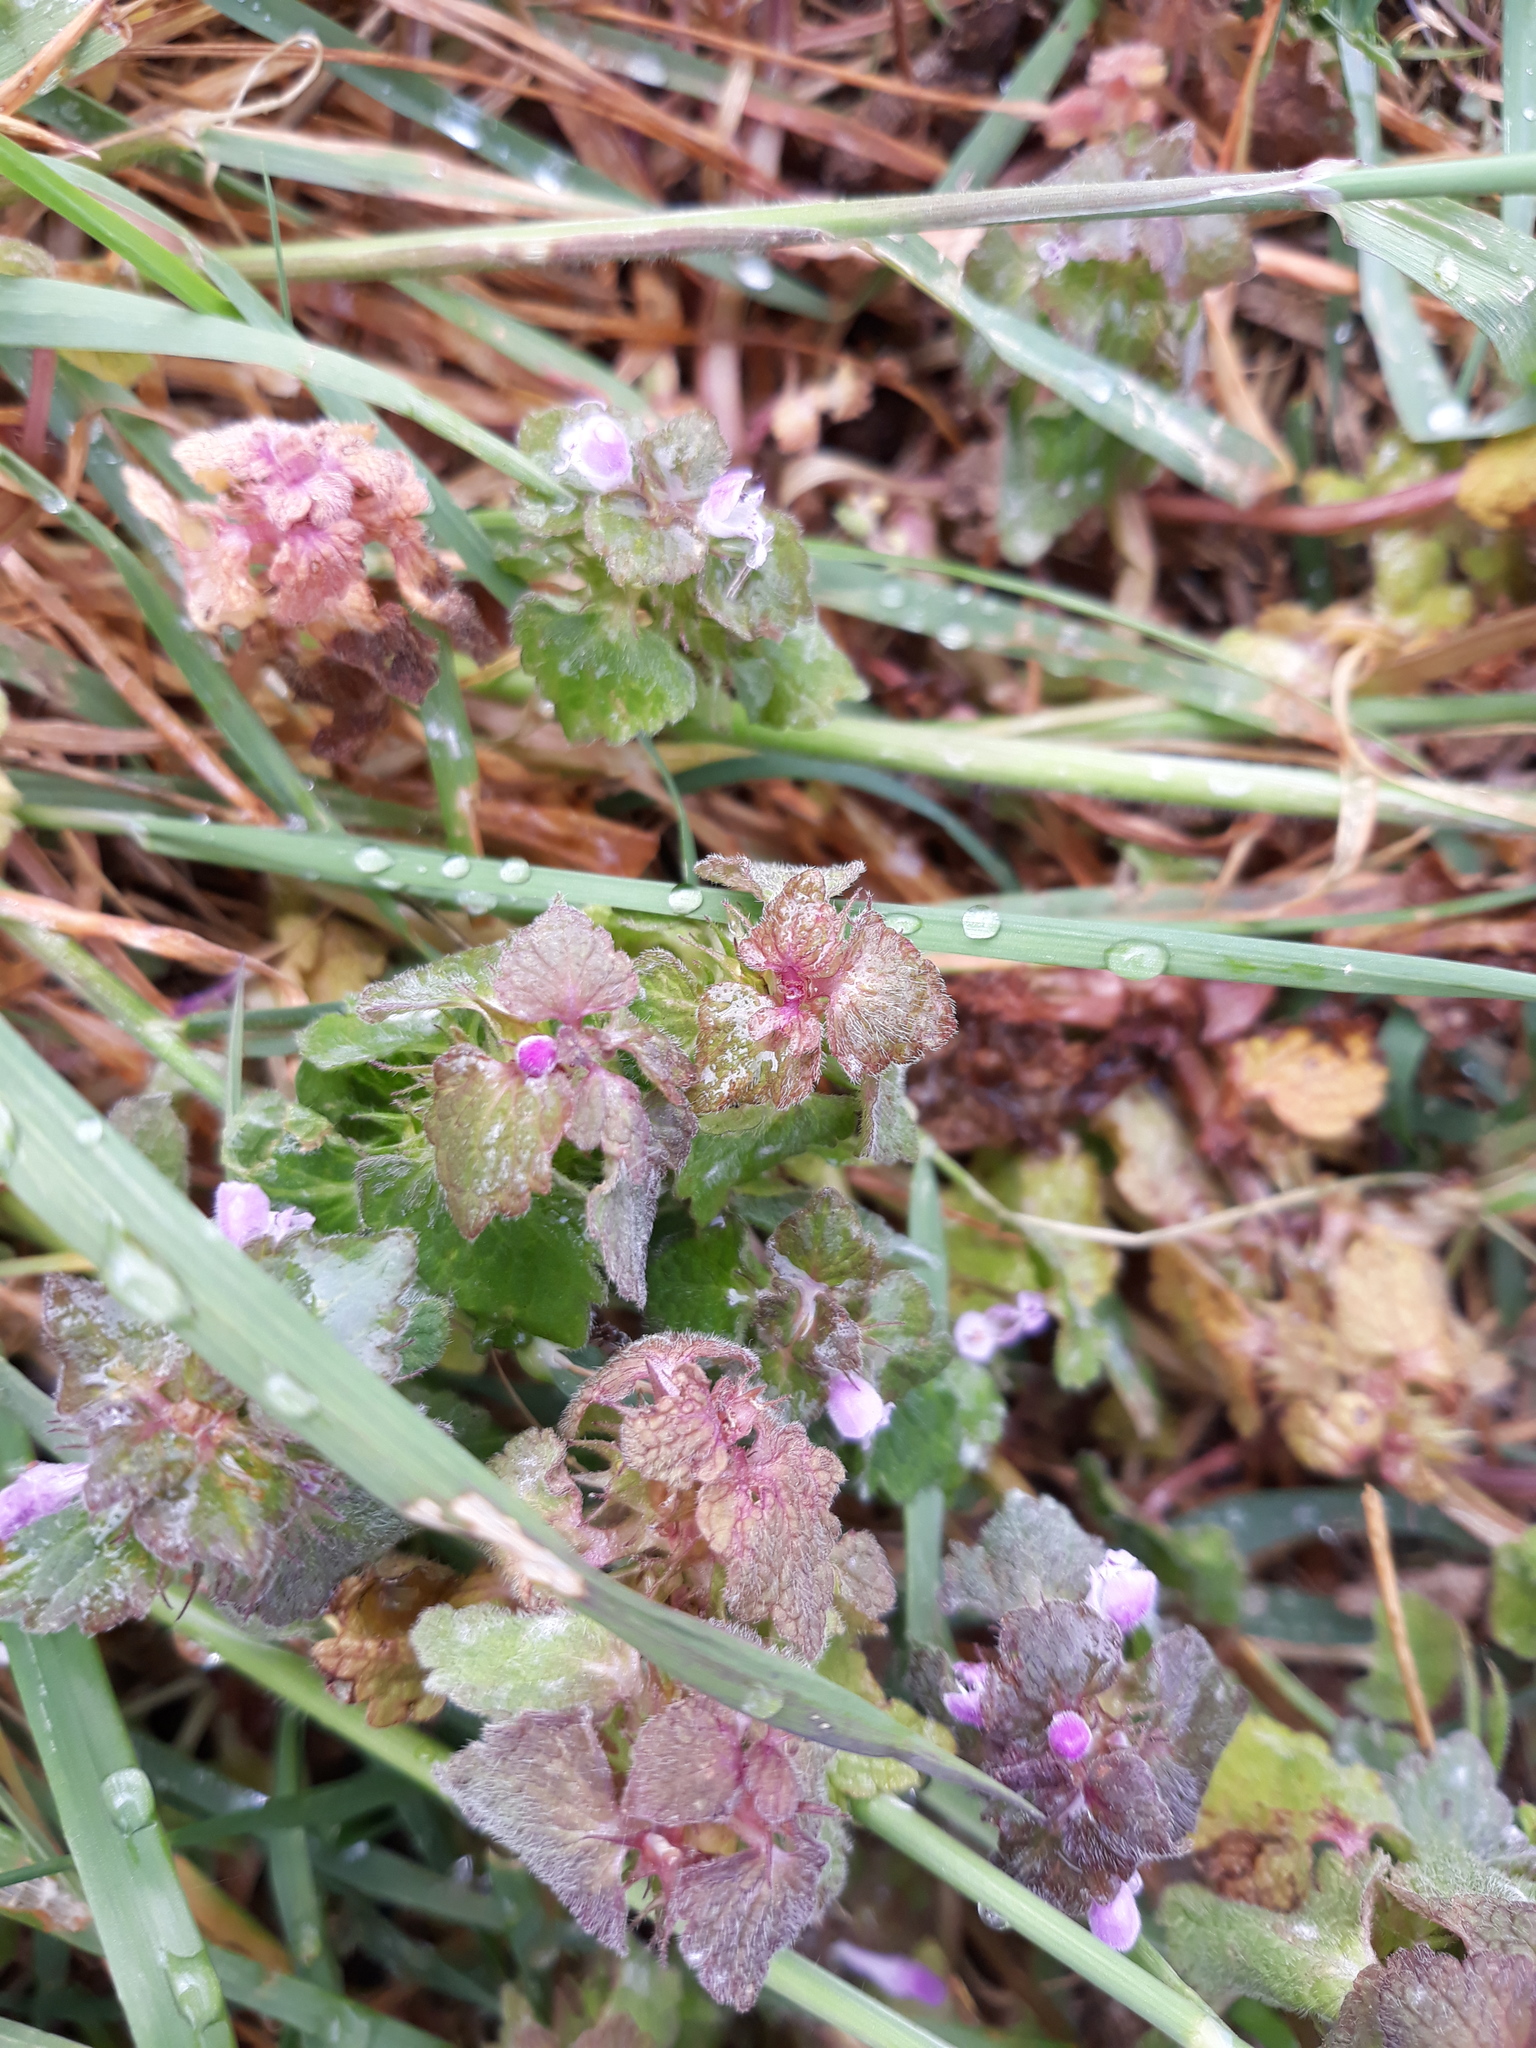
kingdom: Plantae
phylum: Tracheophyta
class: Magnoliopsida
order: Lamiales
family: Lamiaceae
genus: Lamium
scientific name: Lamium purpureum
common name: Red dead-nettle
